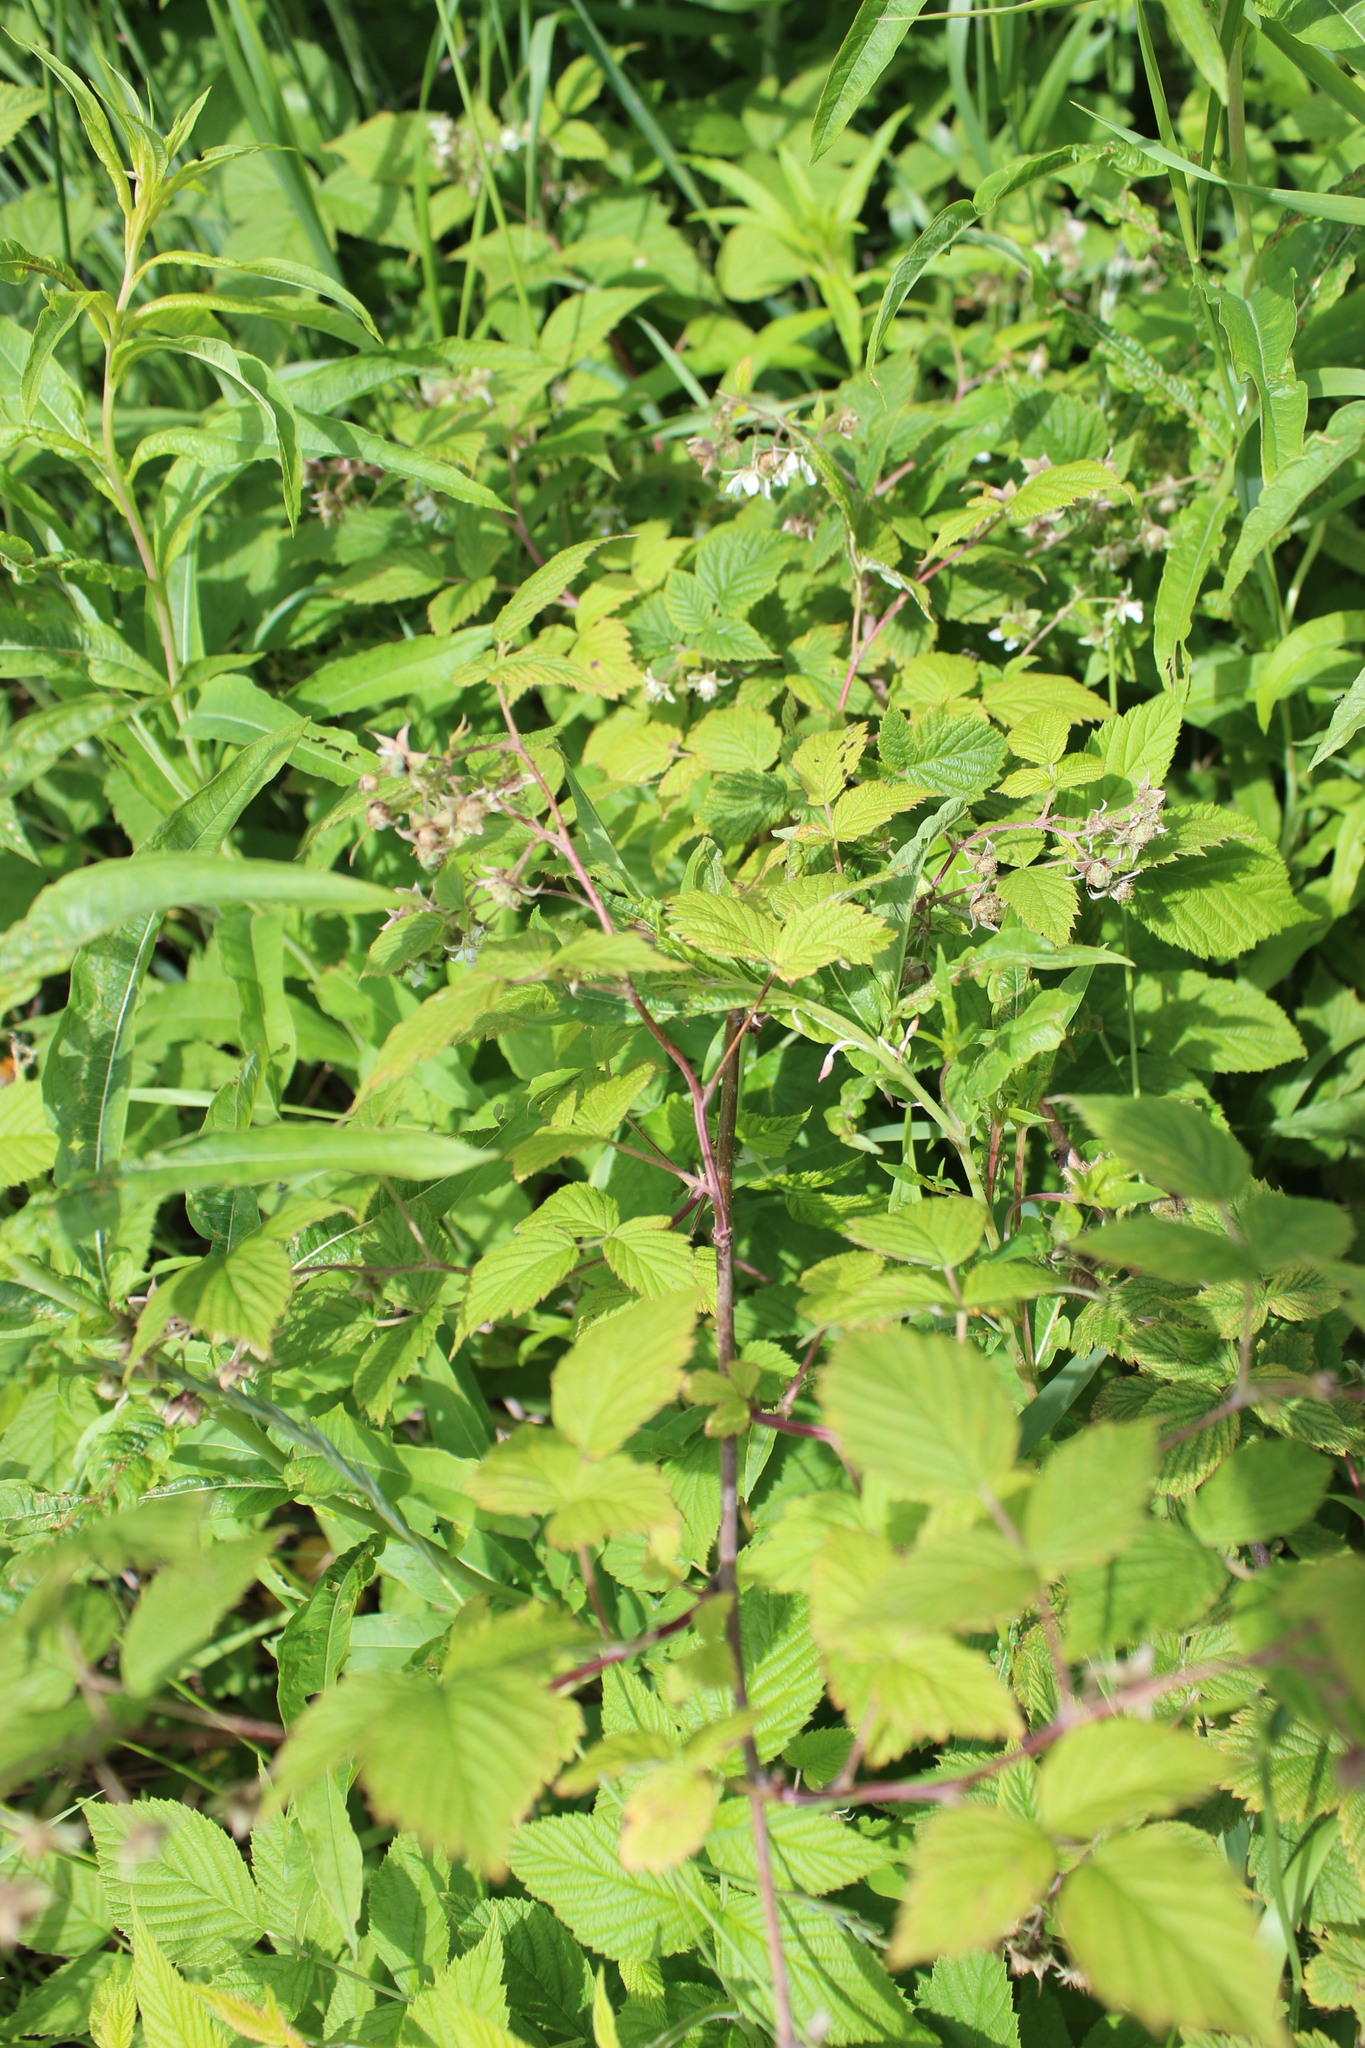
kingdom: Plantae
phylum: Tracheophyta
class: Magnoliopsida
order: Rosales
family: Rosaceae
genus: Rubus
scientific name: Rubus idaeus
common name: Raspberry
